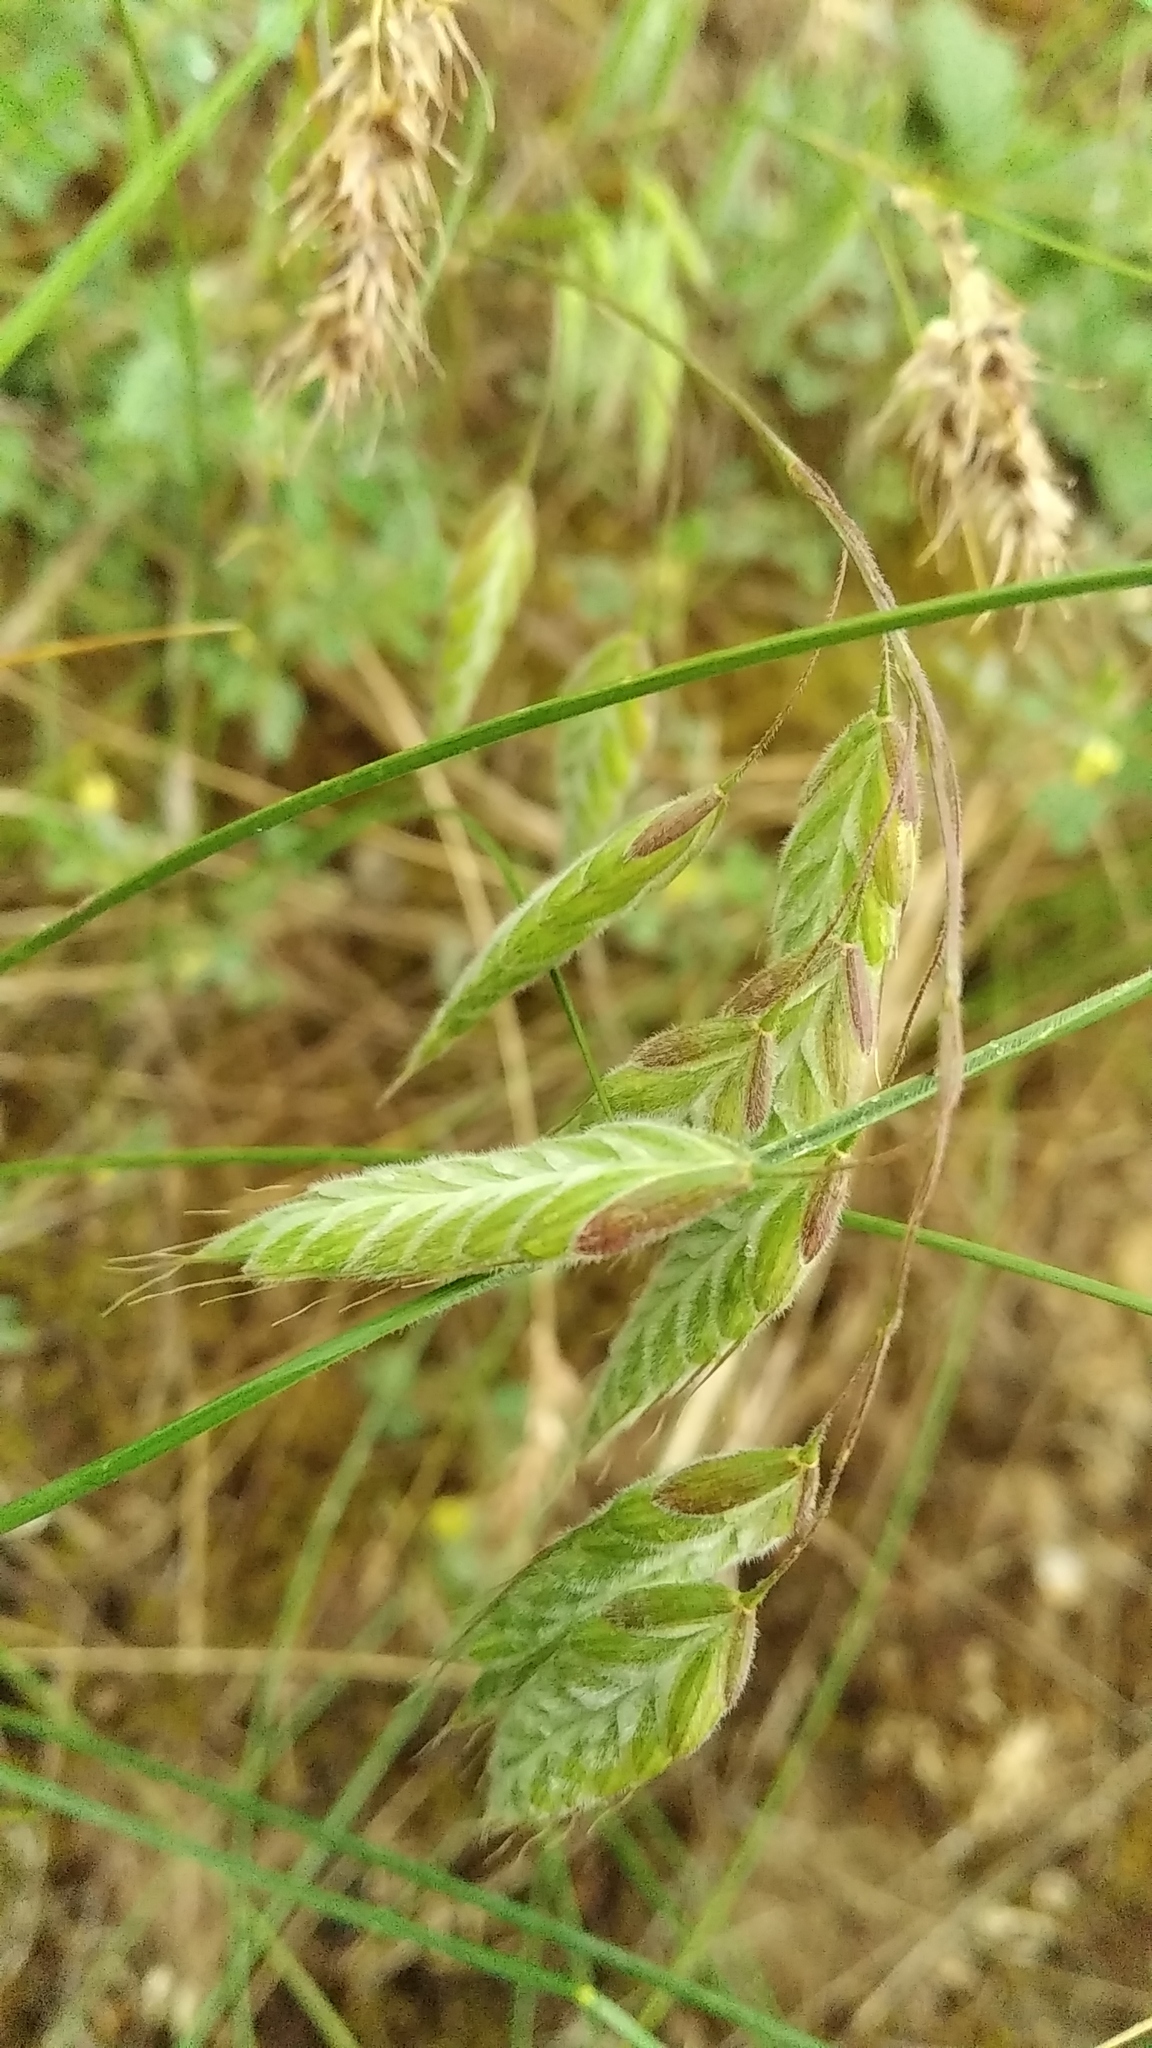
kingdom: Plantae
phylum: Tracheophyta
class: Liliopsida
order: Poales
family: Poaceae
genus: Bromus
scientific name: Bromus squarrosus
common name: Corn brome
